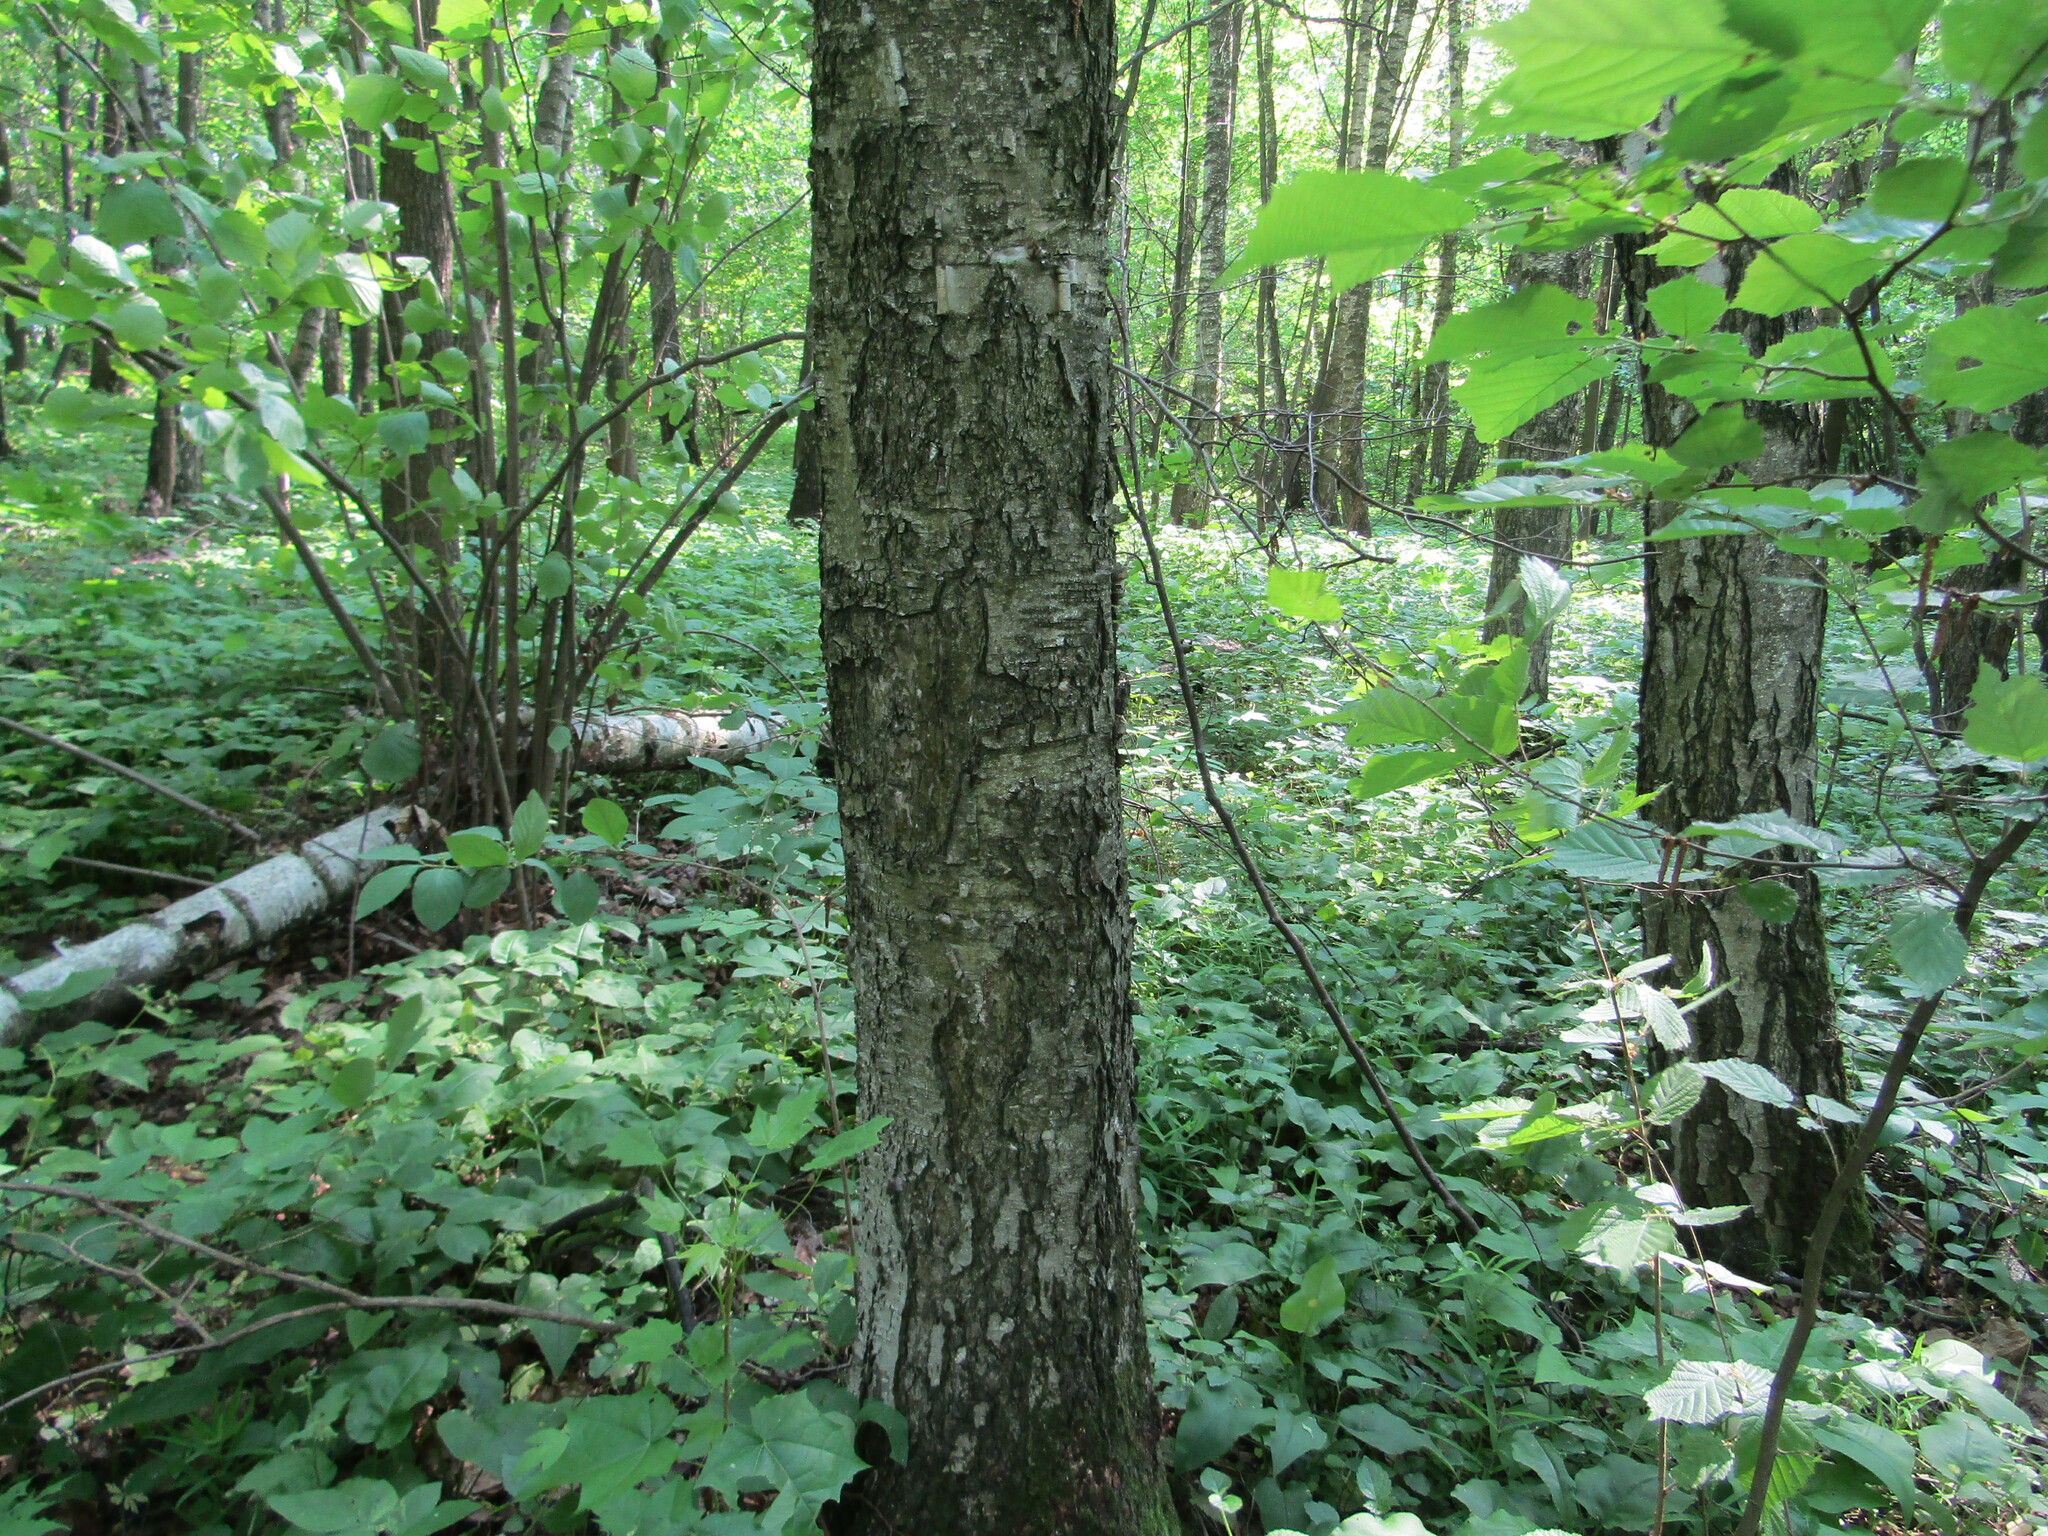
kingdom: Plantae
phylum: Tracheophyta
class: Magnoliopsida
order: Fagales
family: Betulaceae
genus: Betula
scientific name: Betula pendula
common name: Silver birch
